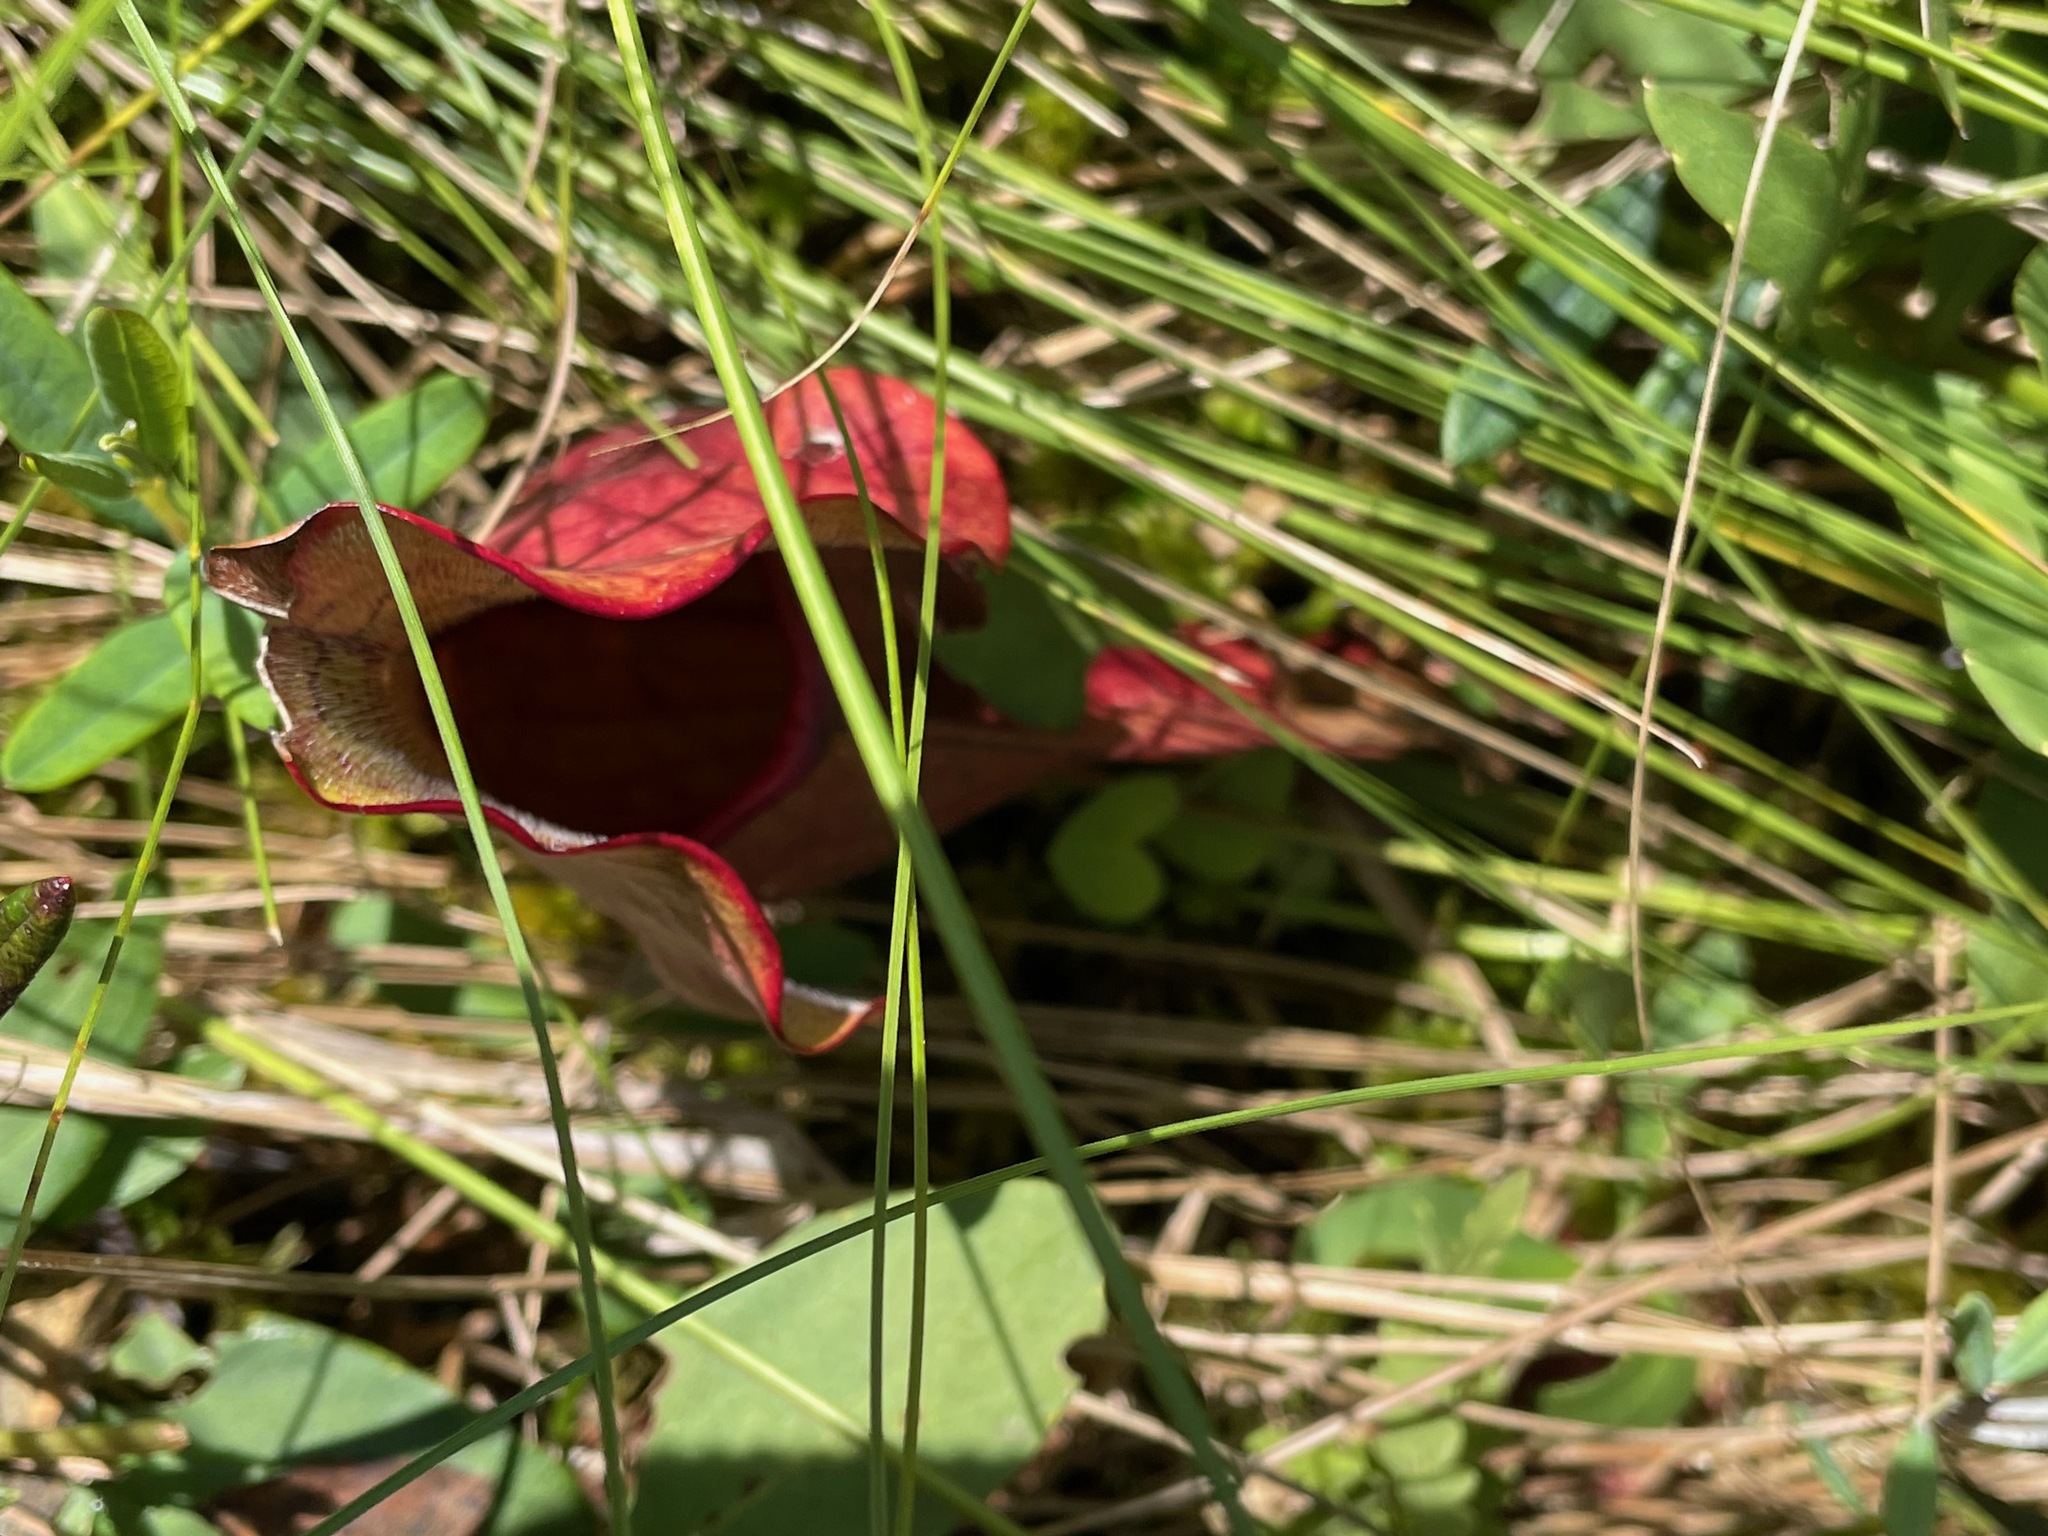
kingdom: Plantae
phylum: Tracheophyta
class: Magnoliopsida
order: Ericales
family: Sarraceniaceae
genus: Sarracenia
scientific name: Sarracenia purpurea
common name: Pitcherplant
